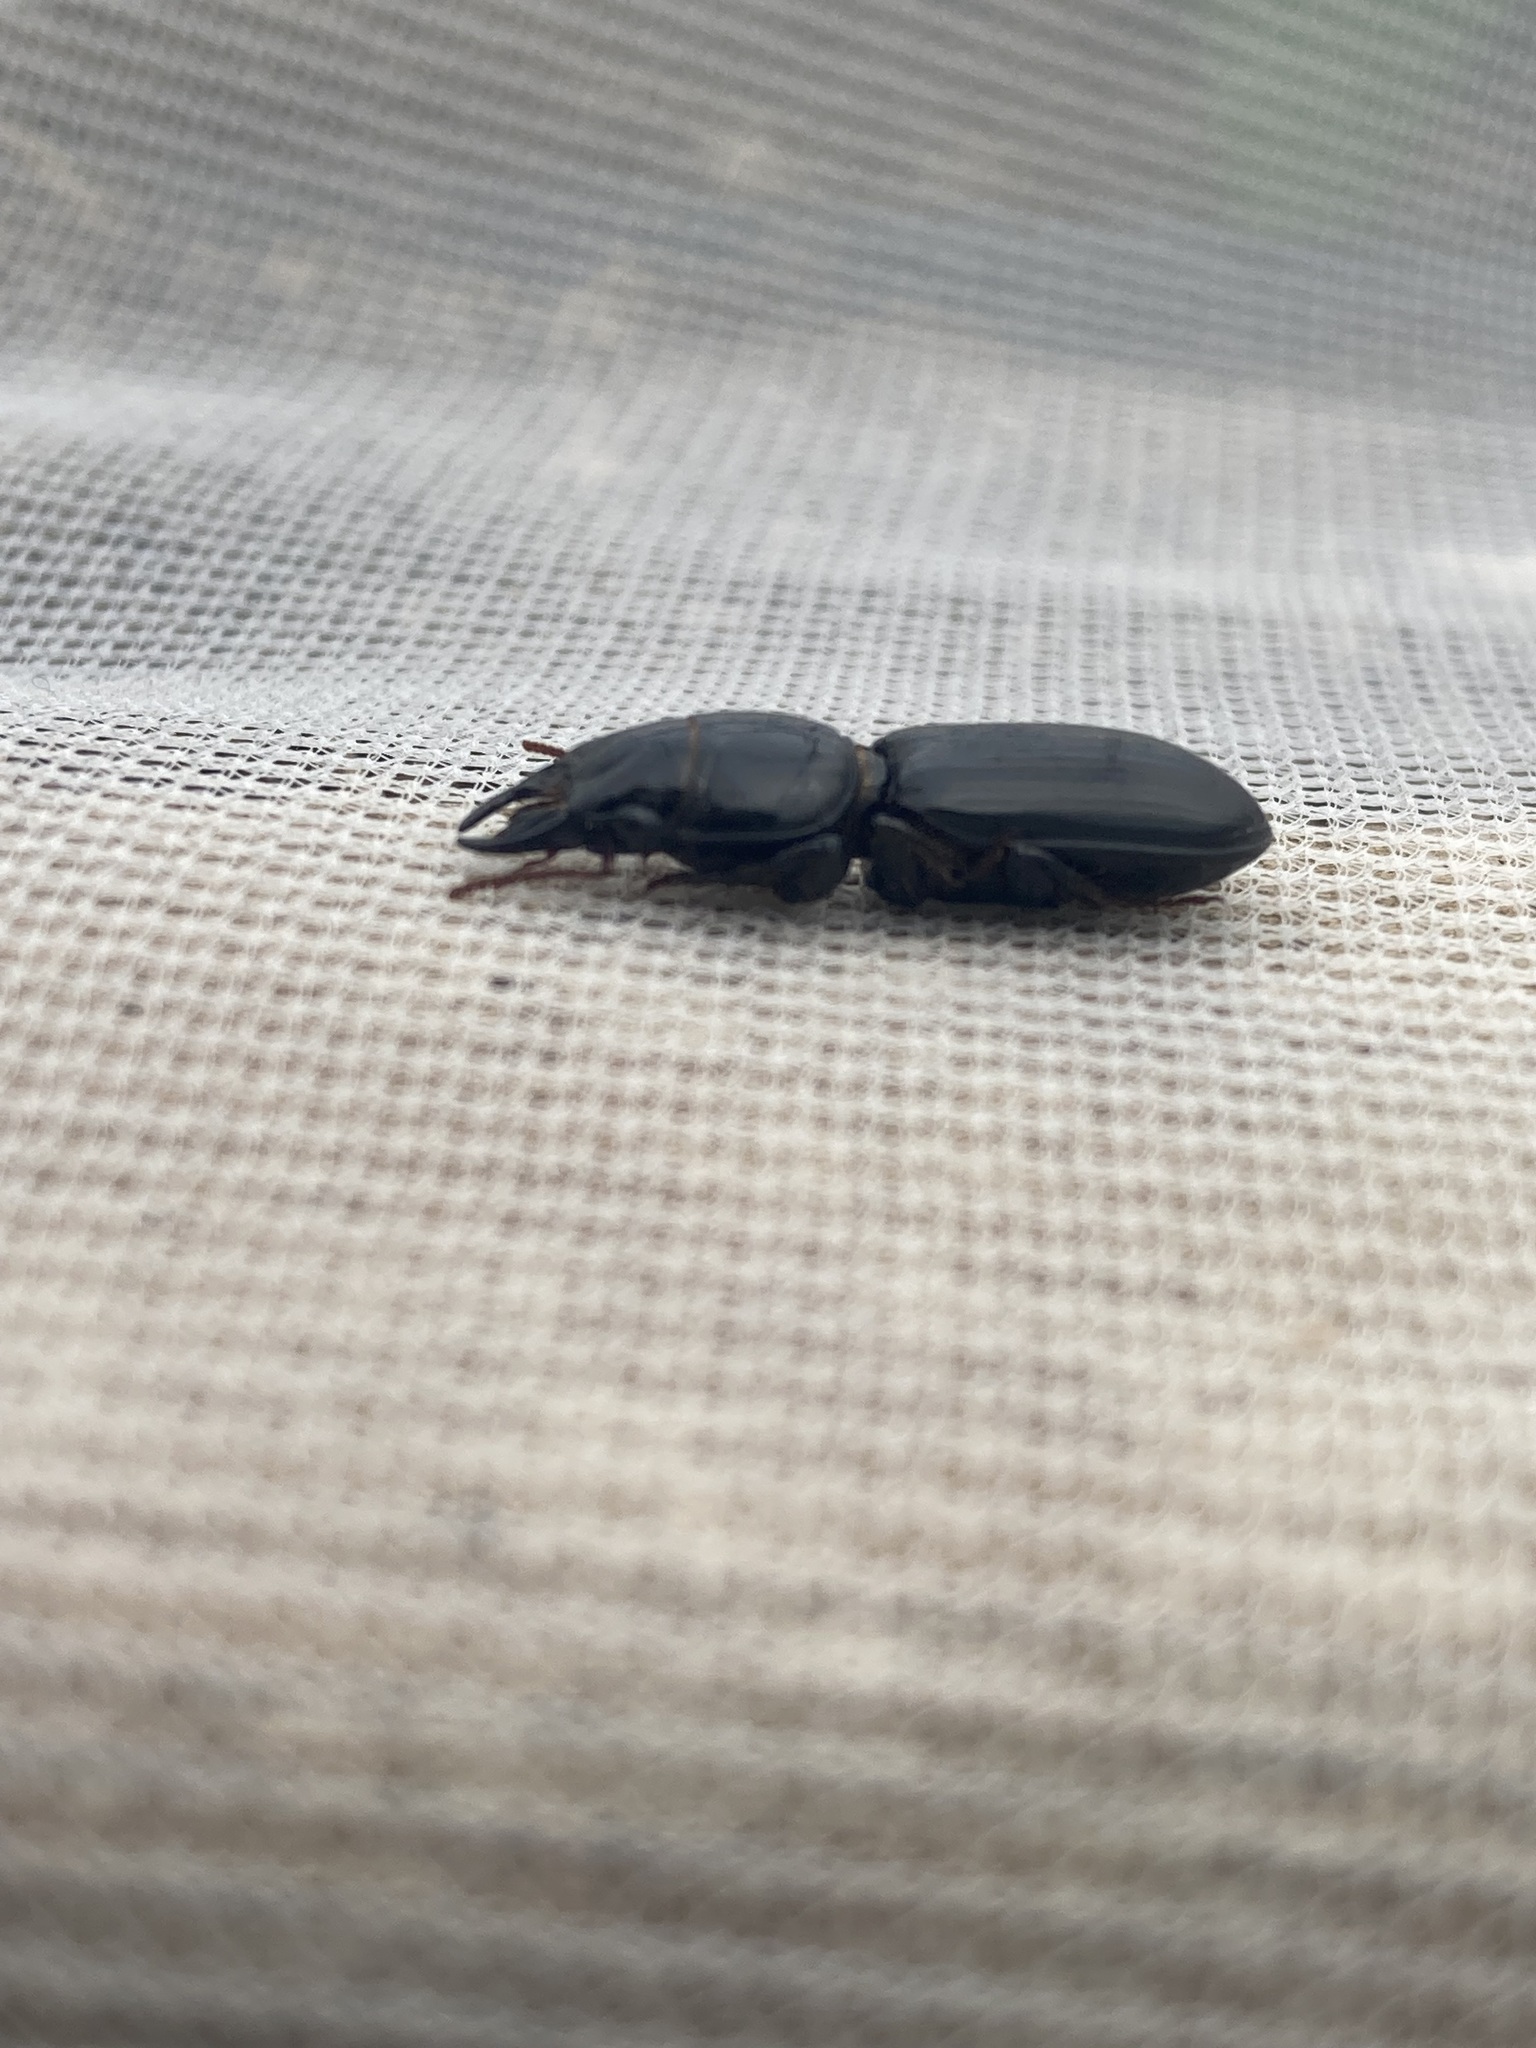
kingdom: Animalia
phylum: Arthropoda
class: Insecta
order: Coleoptera
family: Carabidae
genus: Scarites
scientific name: Scarites subterraneus
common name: Big-headed ground beetle
